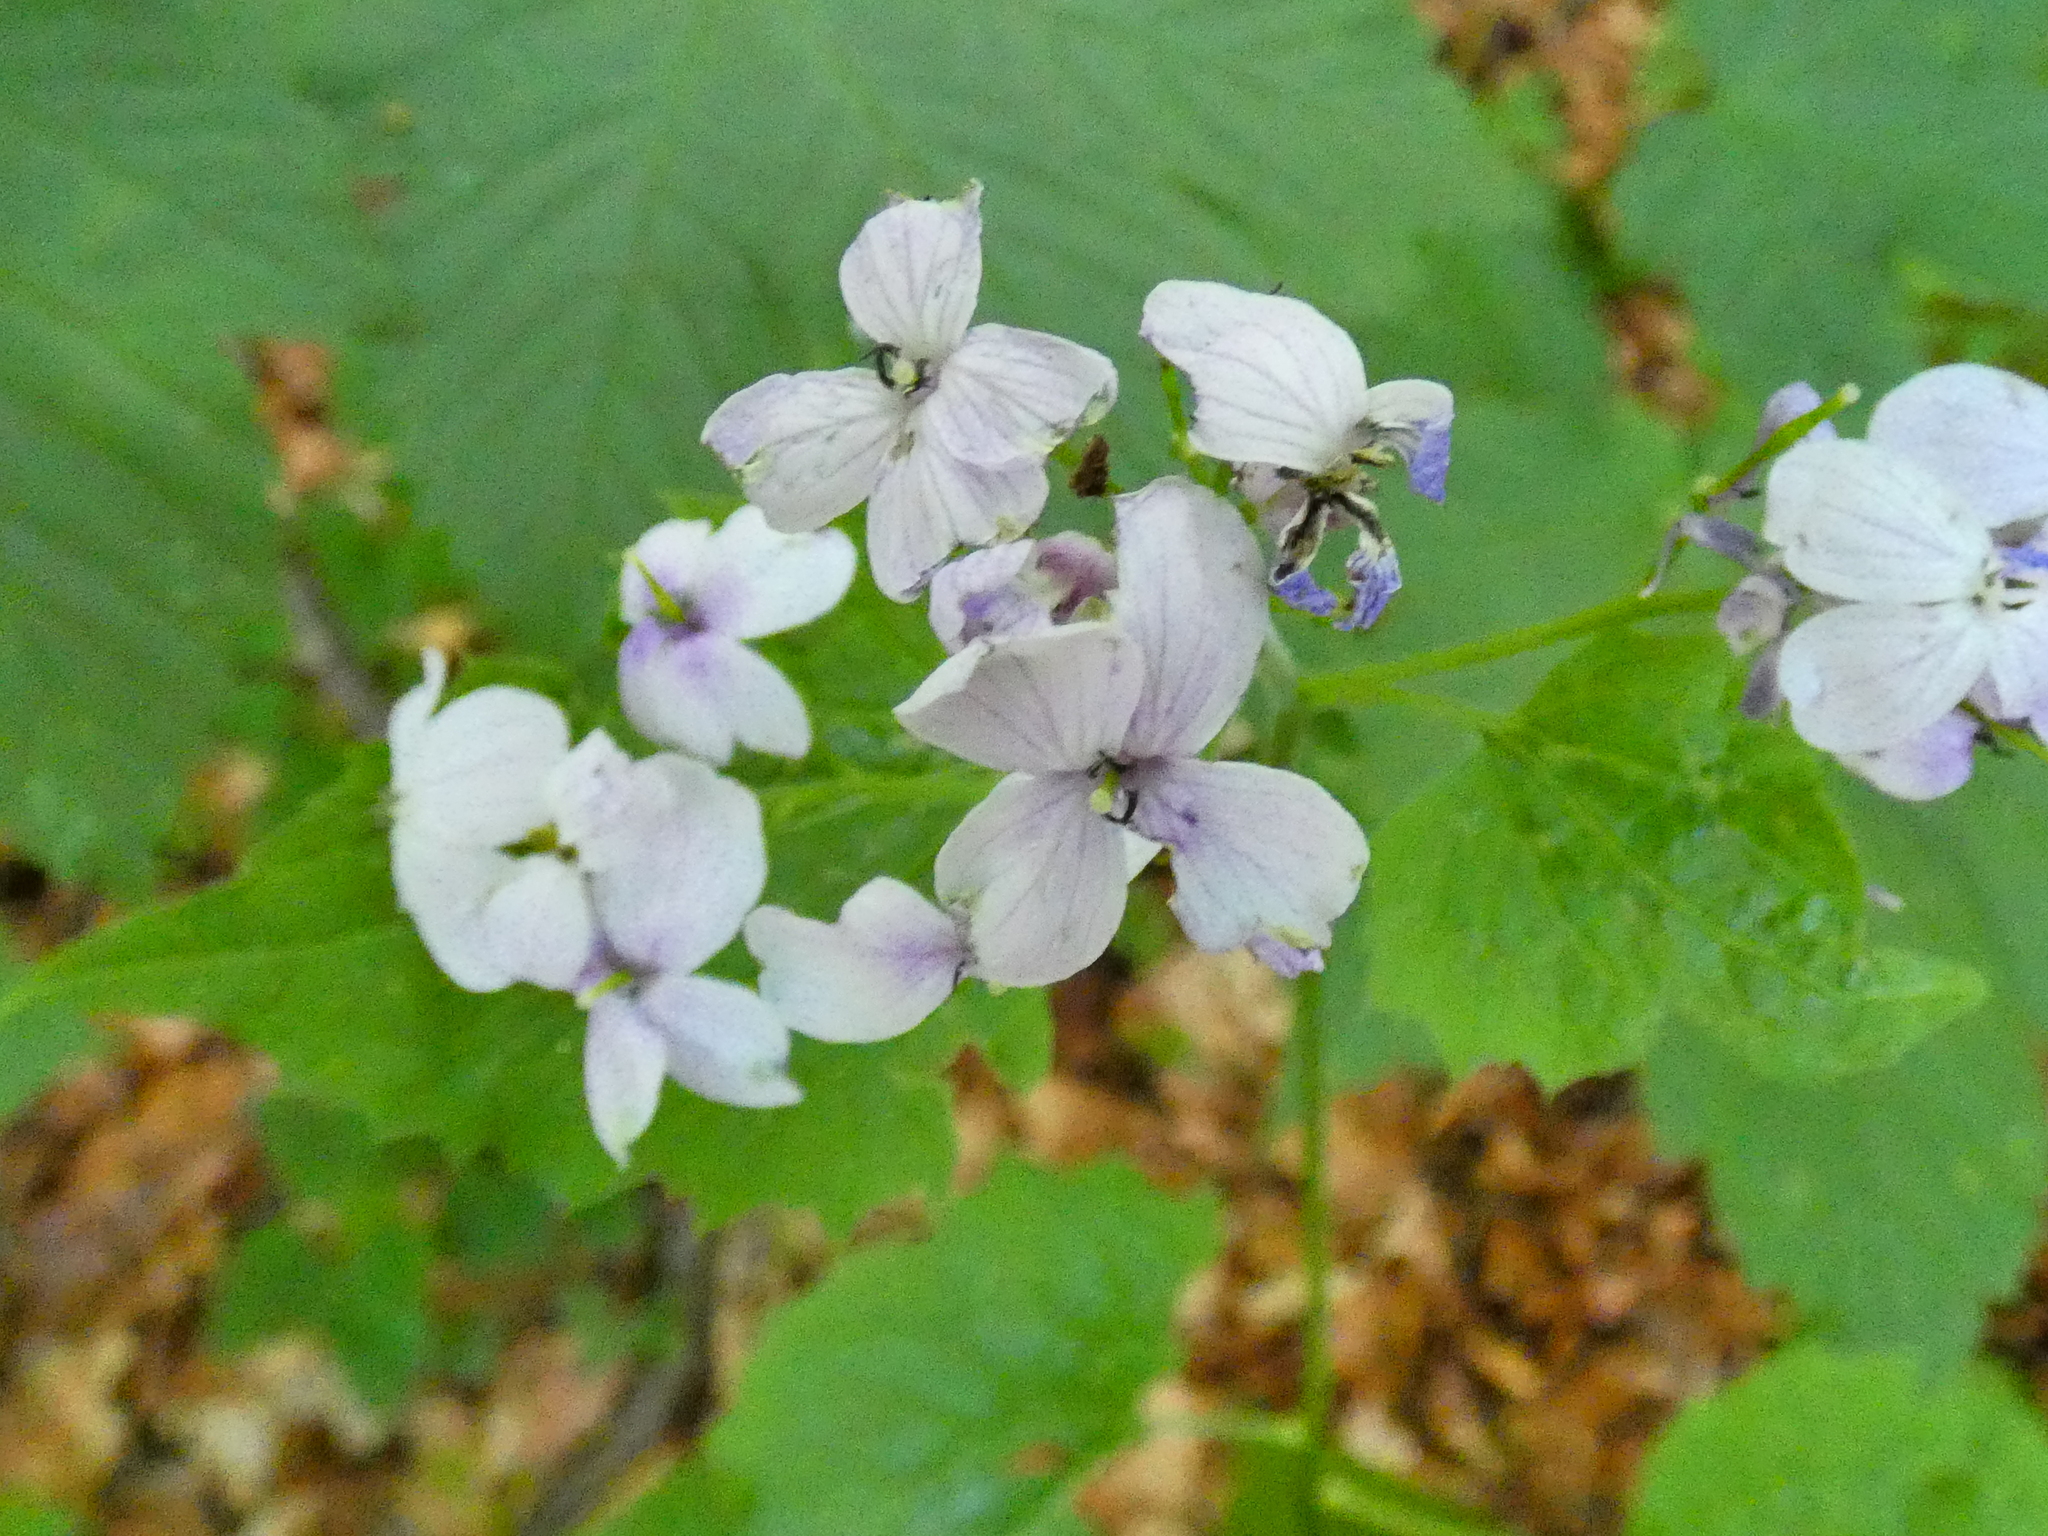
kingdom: Plantae
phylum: Tracheophyta
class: Magnoliopsida
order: Brassicales
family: Brassicaceae
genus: Lunaria
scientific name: Lunaria rediviva
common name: Perennial honesty
